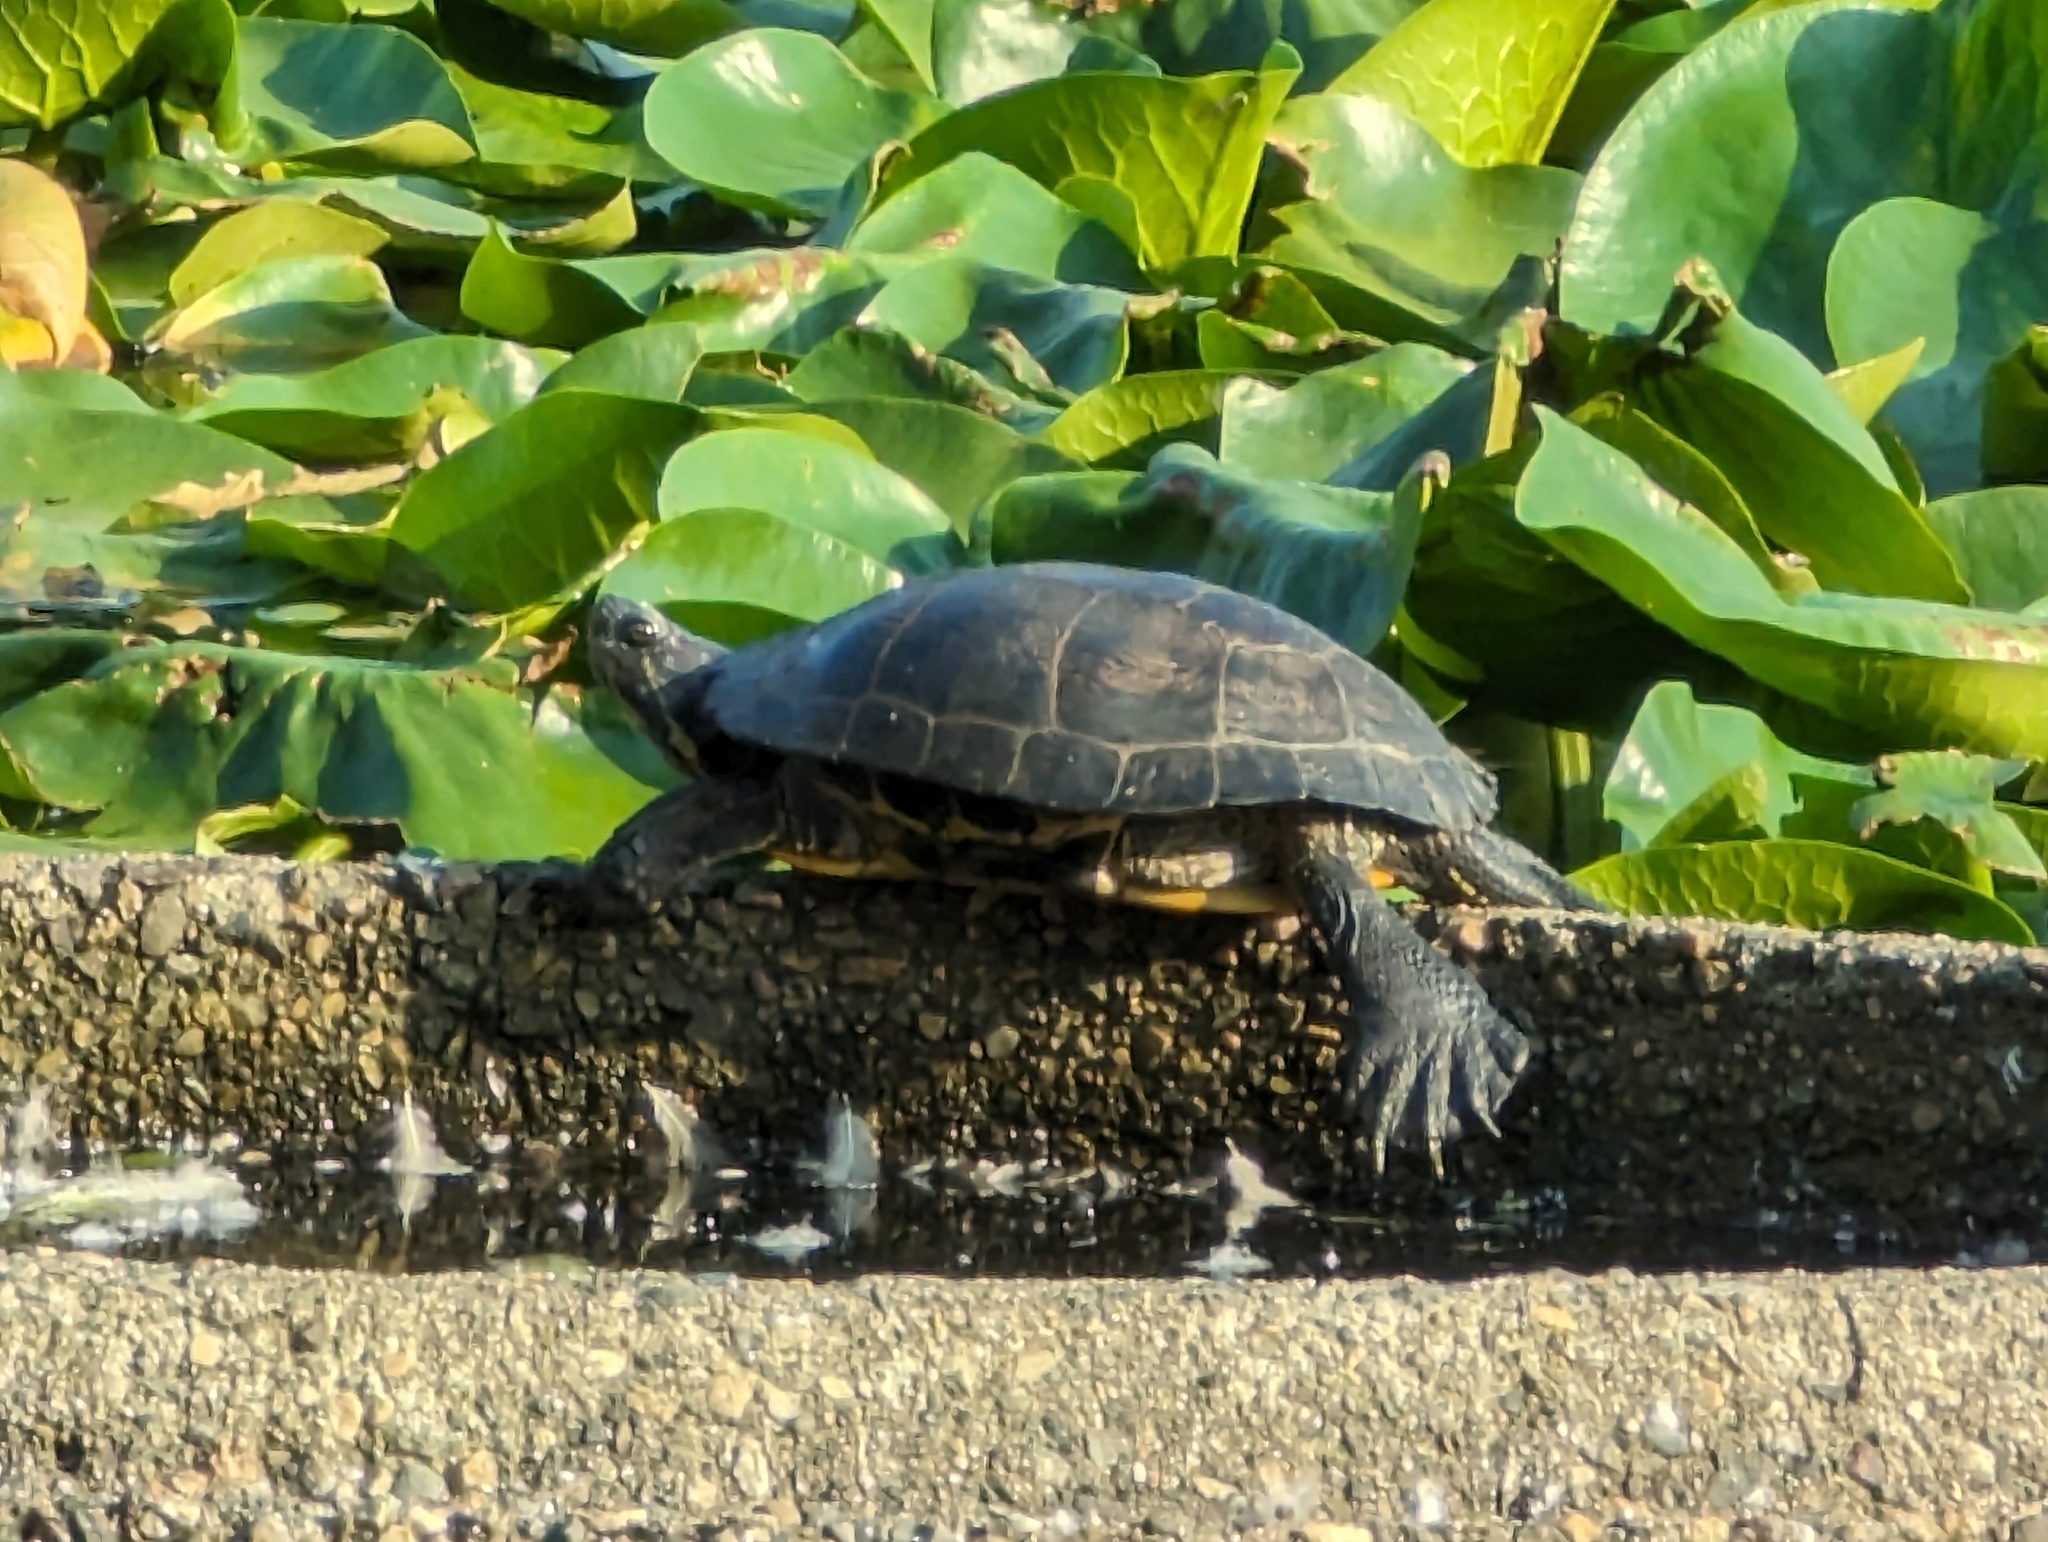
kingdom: Animalia
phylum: Chordata
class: Testudines
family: Emydidae
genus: Trachemys
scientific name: Trachemys scripta
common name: Slider
